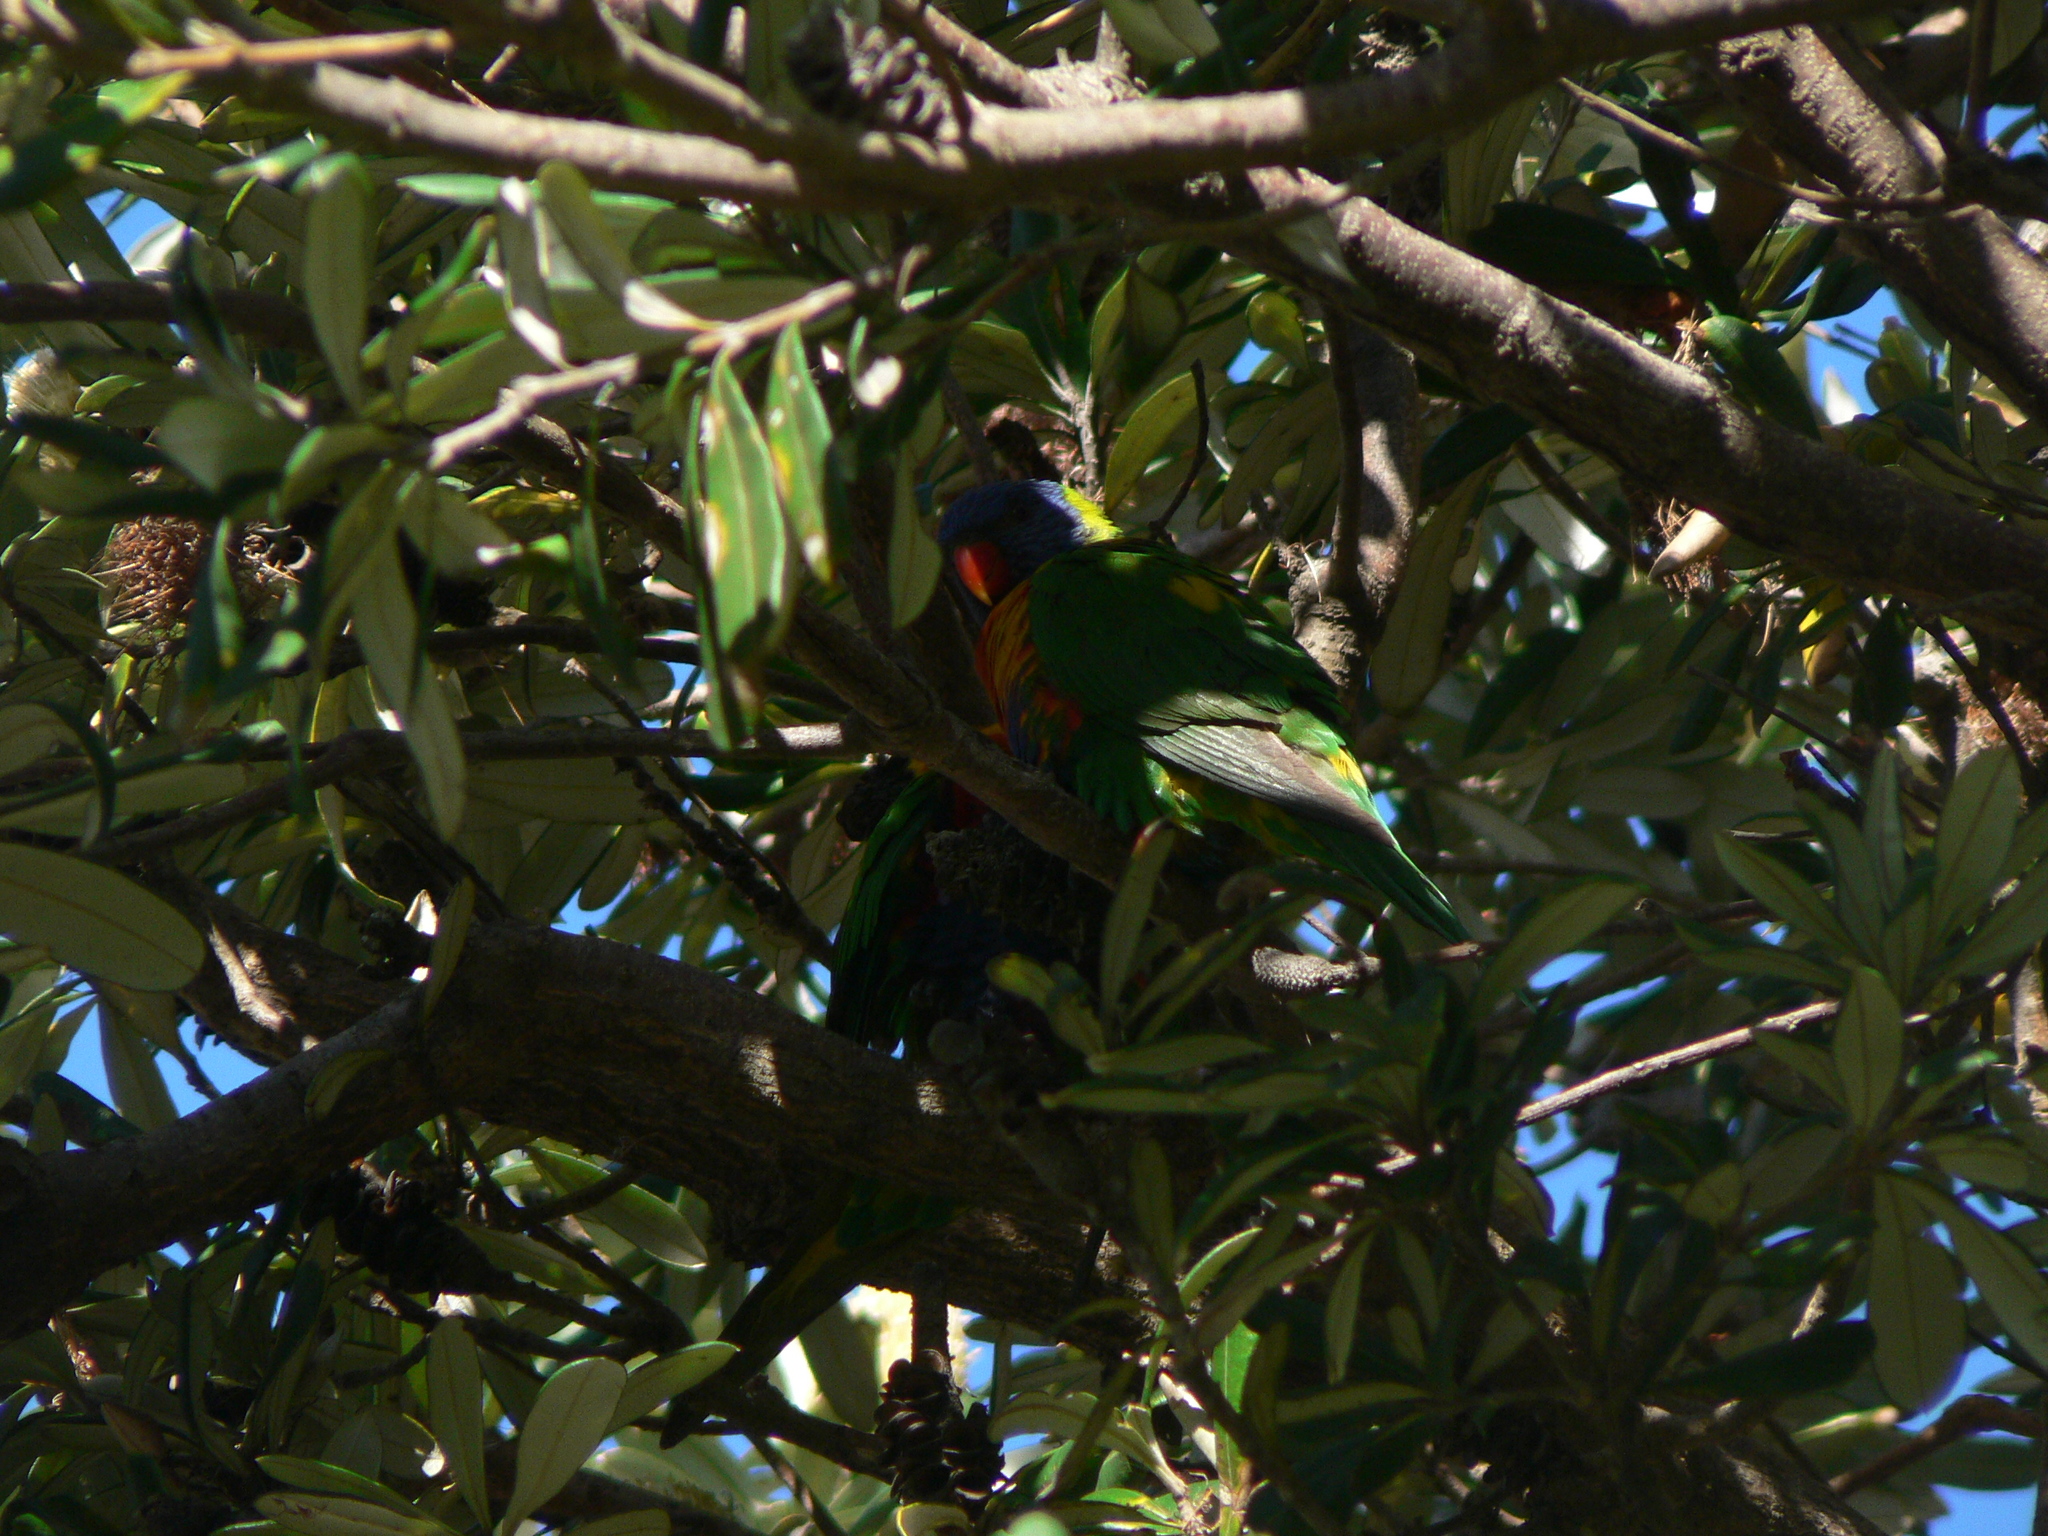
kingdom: Animalia
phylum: Chordata
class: Aves
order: Psittaciformes
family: Psittacidae
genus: Trichoglossus
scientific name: Trichoglossus haematodus
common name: Coconut lorikeet
